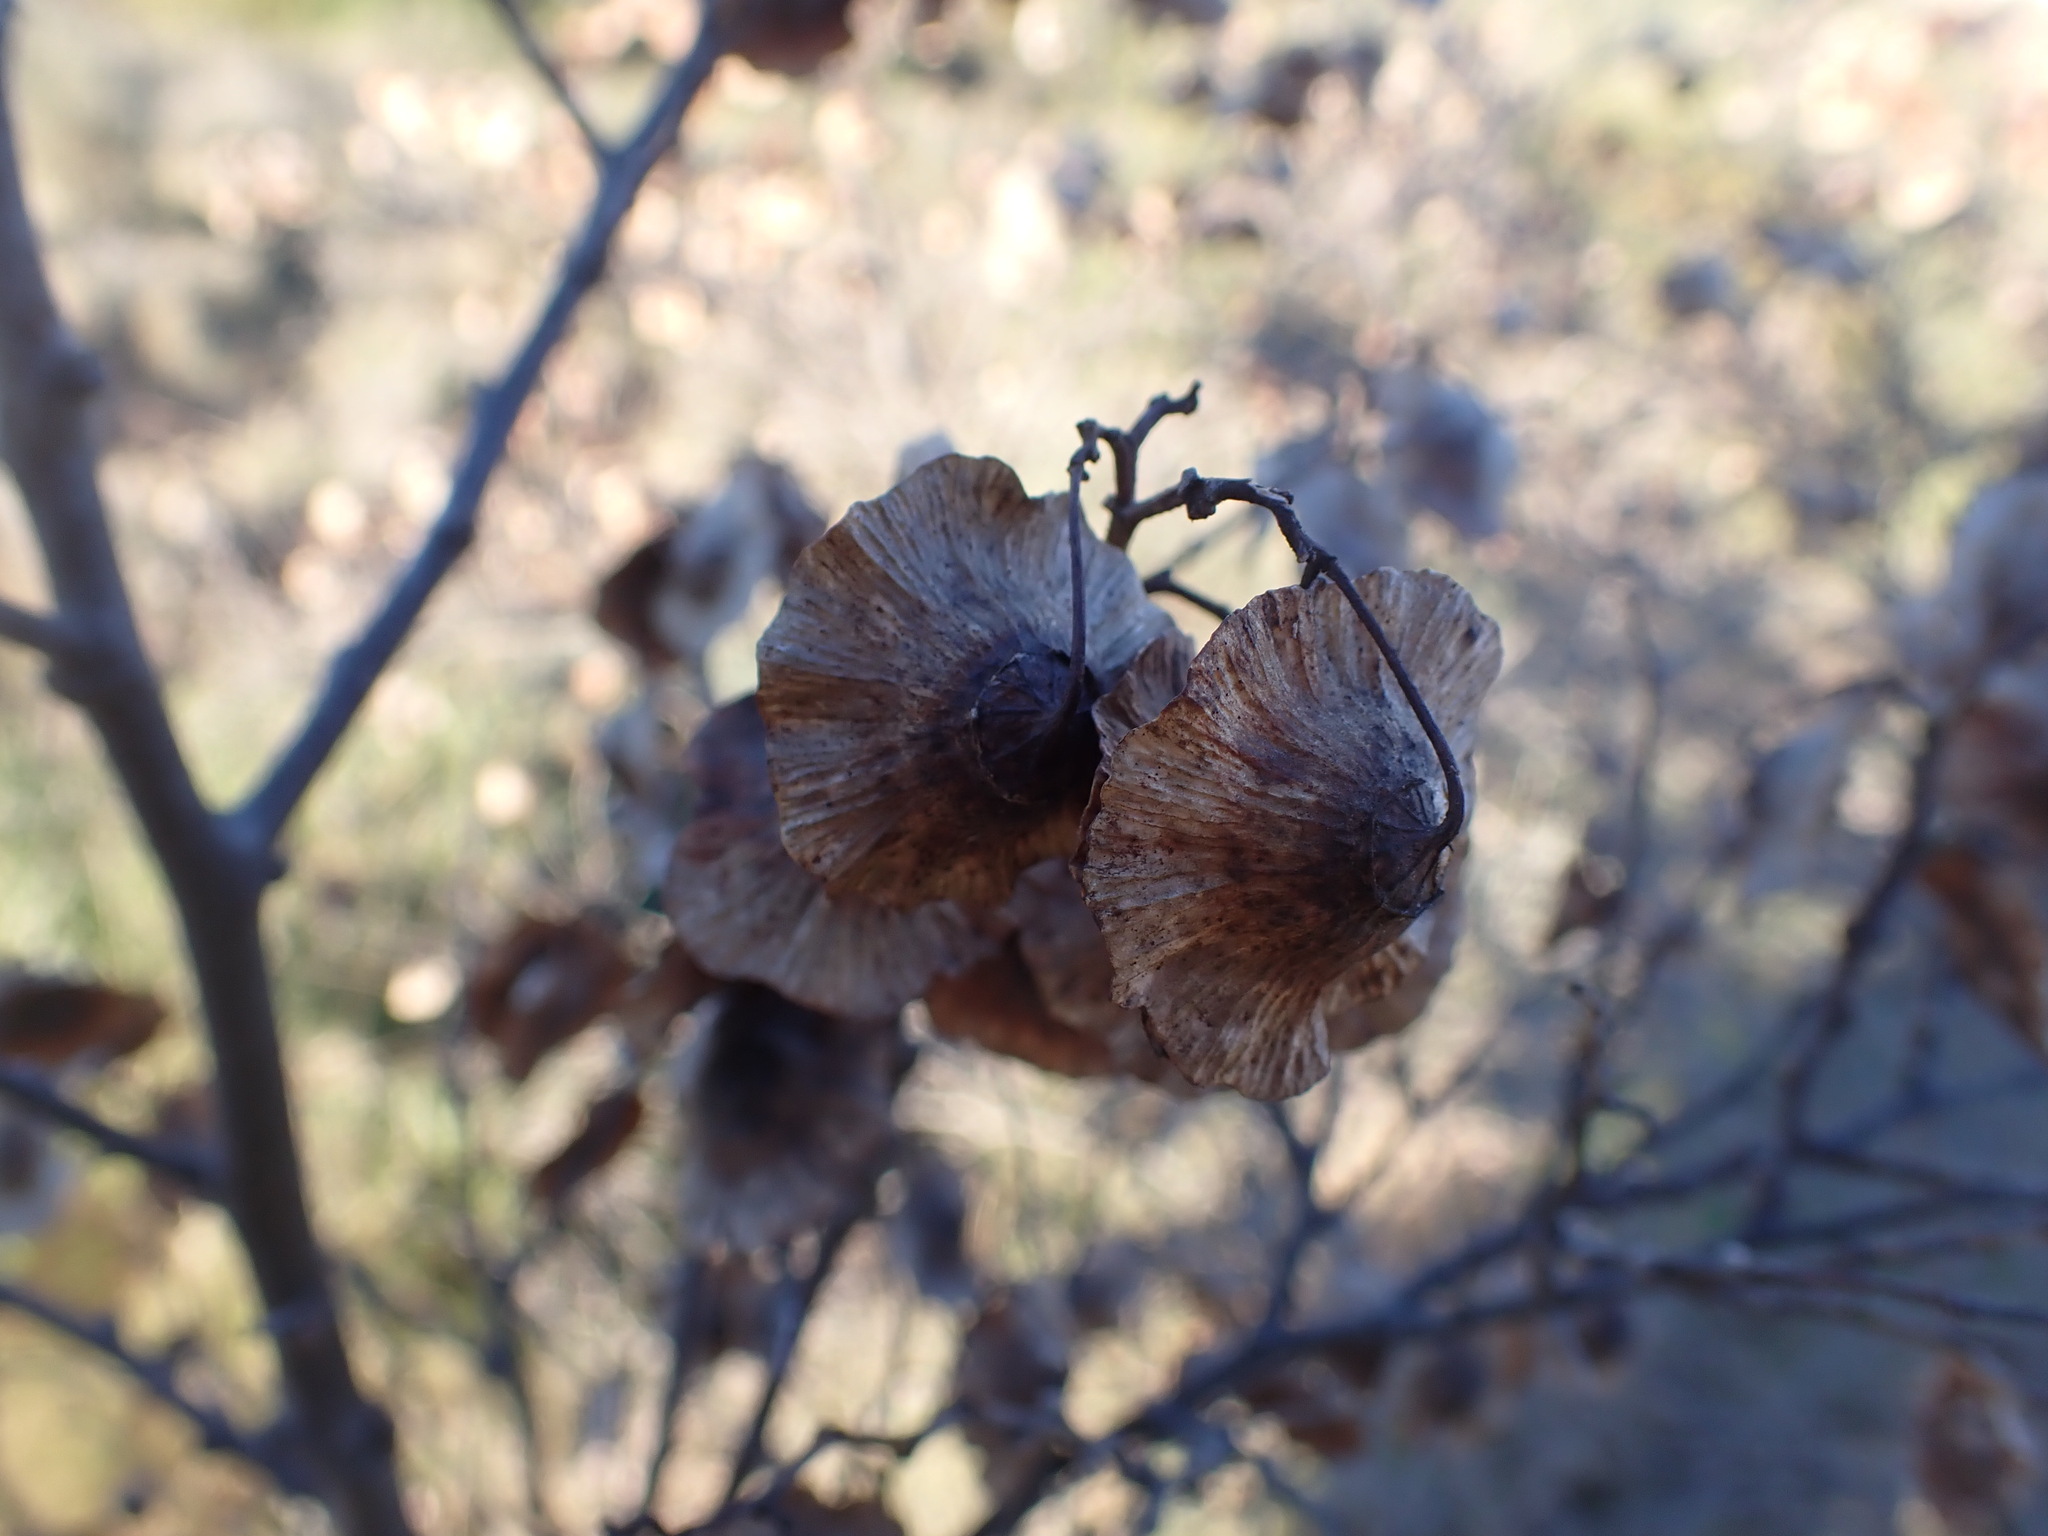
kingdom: Plantae
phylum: Tracheophyta
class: Magnoliopsida
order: Rosales
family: Rhamnaceae
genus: Paliurus
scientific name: Paliurus spina-christi
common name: Jeruselem thorn
